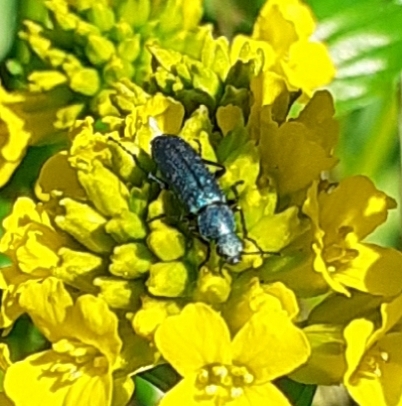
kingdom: Animalia
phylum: Arthropoda
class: Insecta
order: Coleoptera
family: Dasytidae
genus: Psilothrix
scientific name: Psilothrix viridicoerulea
